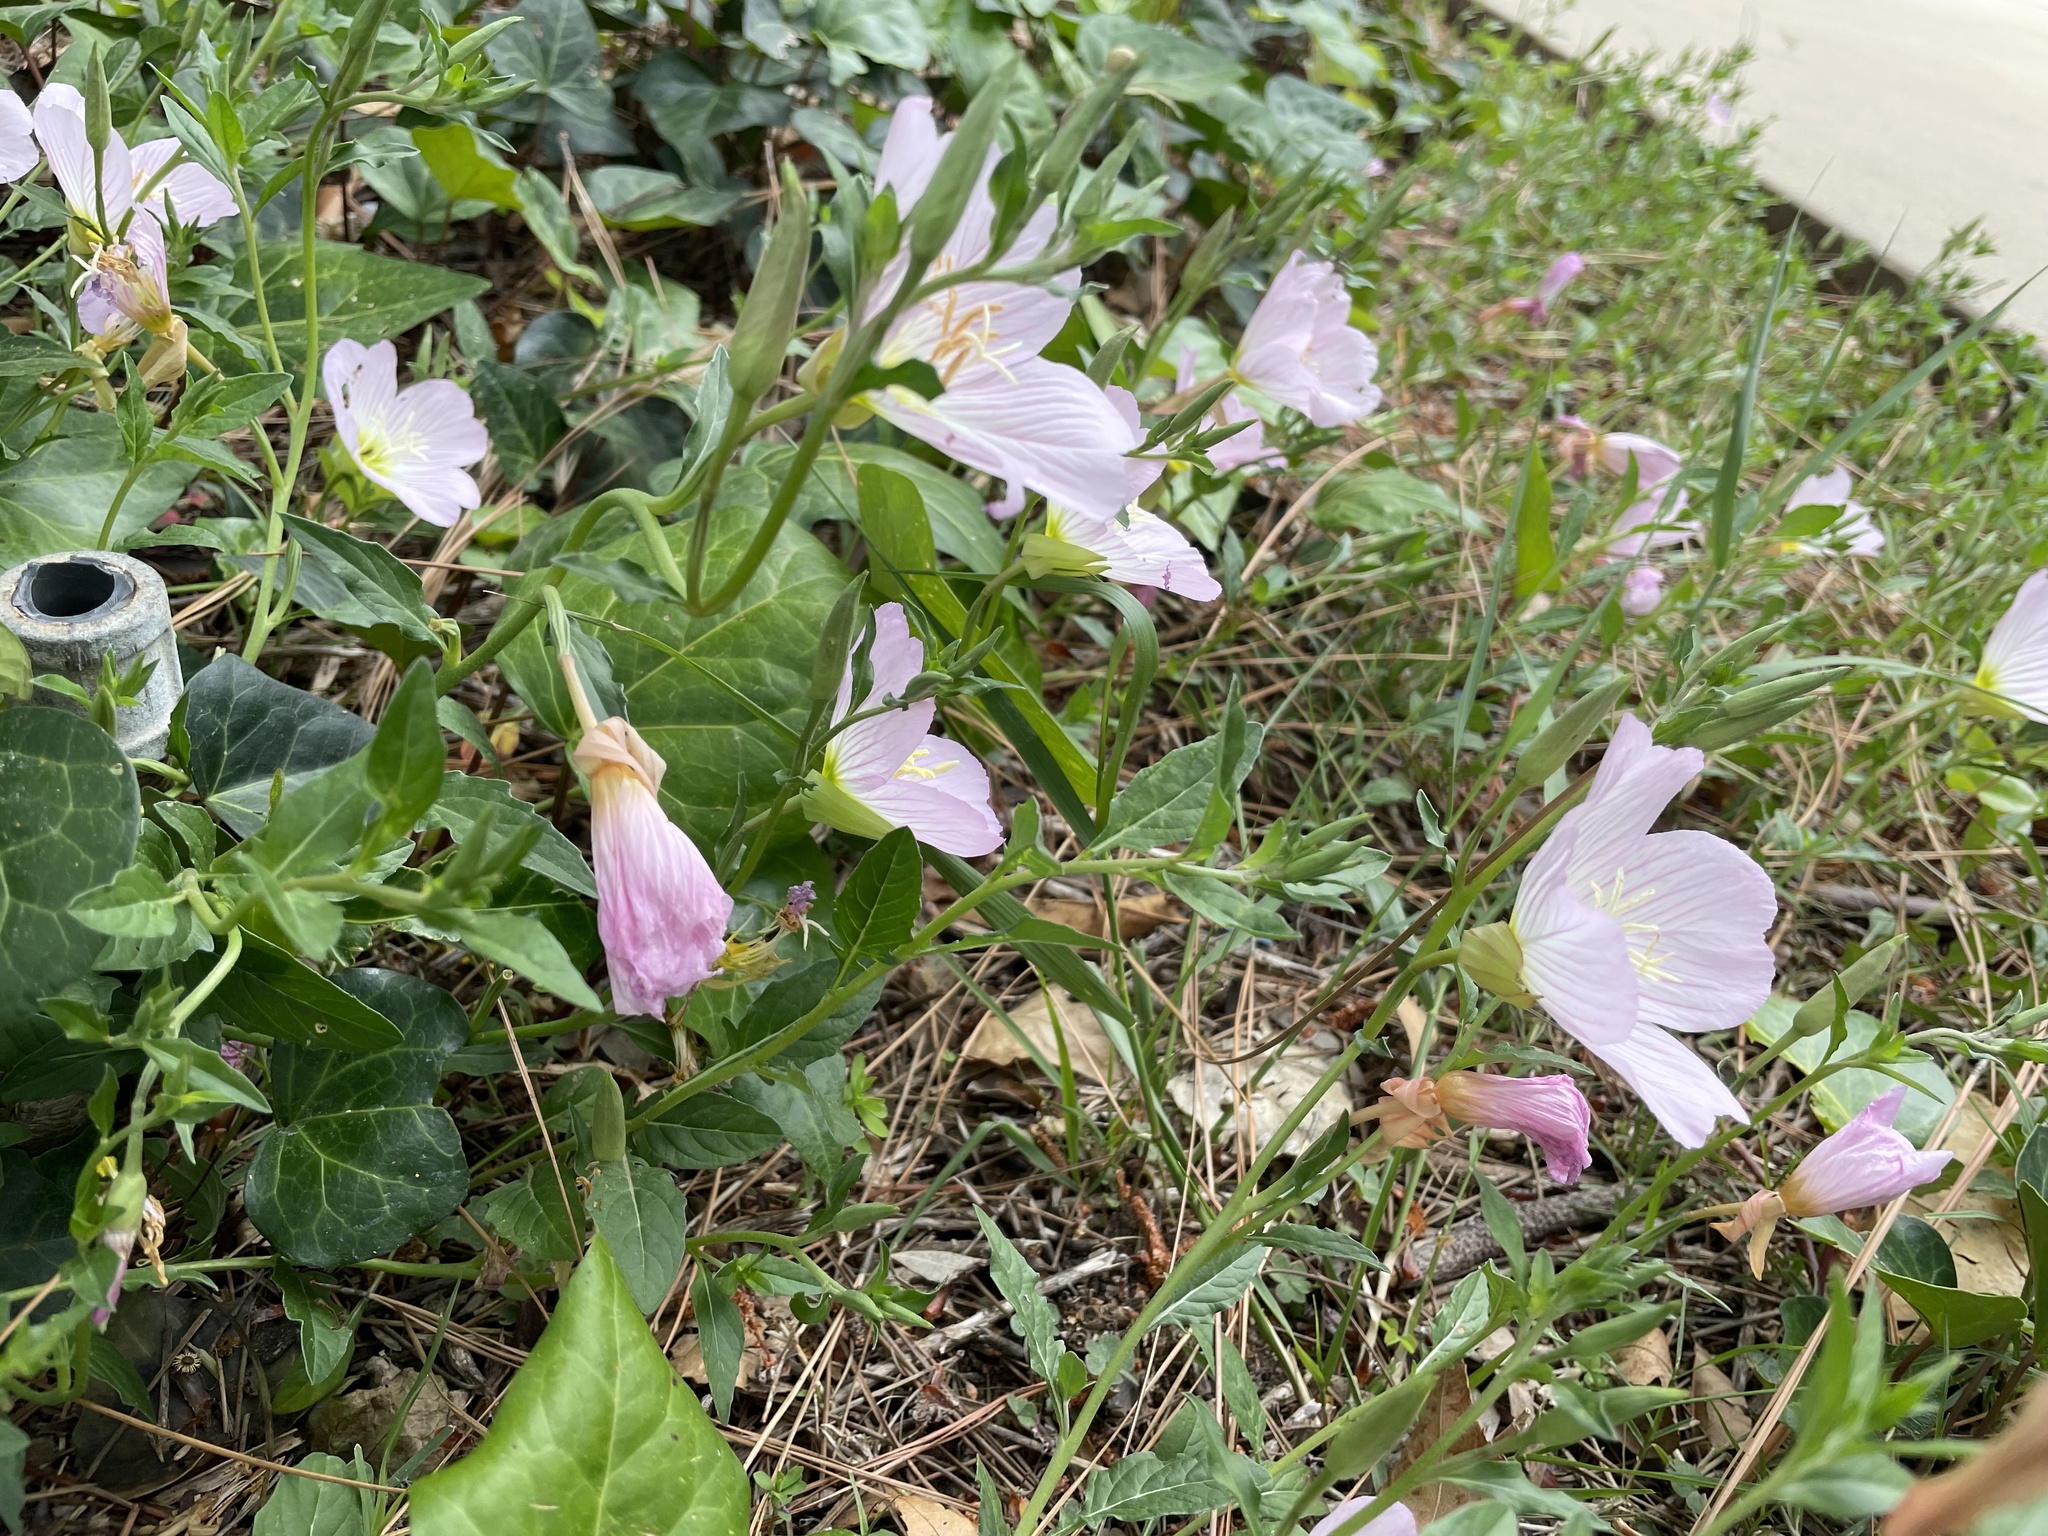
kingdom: Plantae
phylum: Tracheophyta
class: Magnoliopsida
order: Myrtales
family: Onagraceae
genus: Oenothera
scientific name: Oenothera speciosa
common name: White evening-primrose
